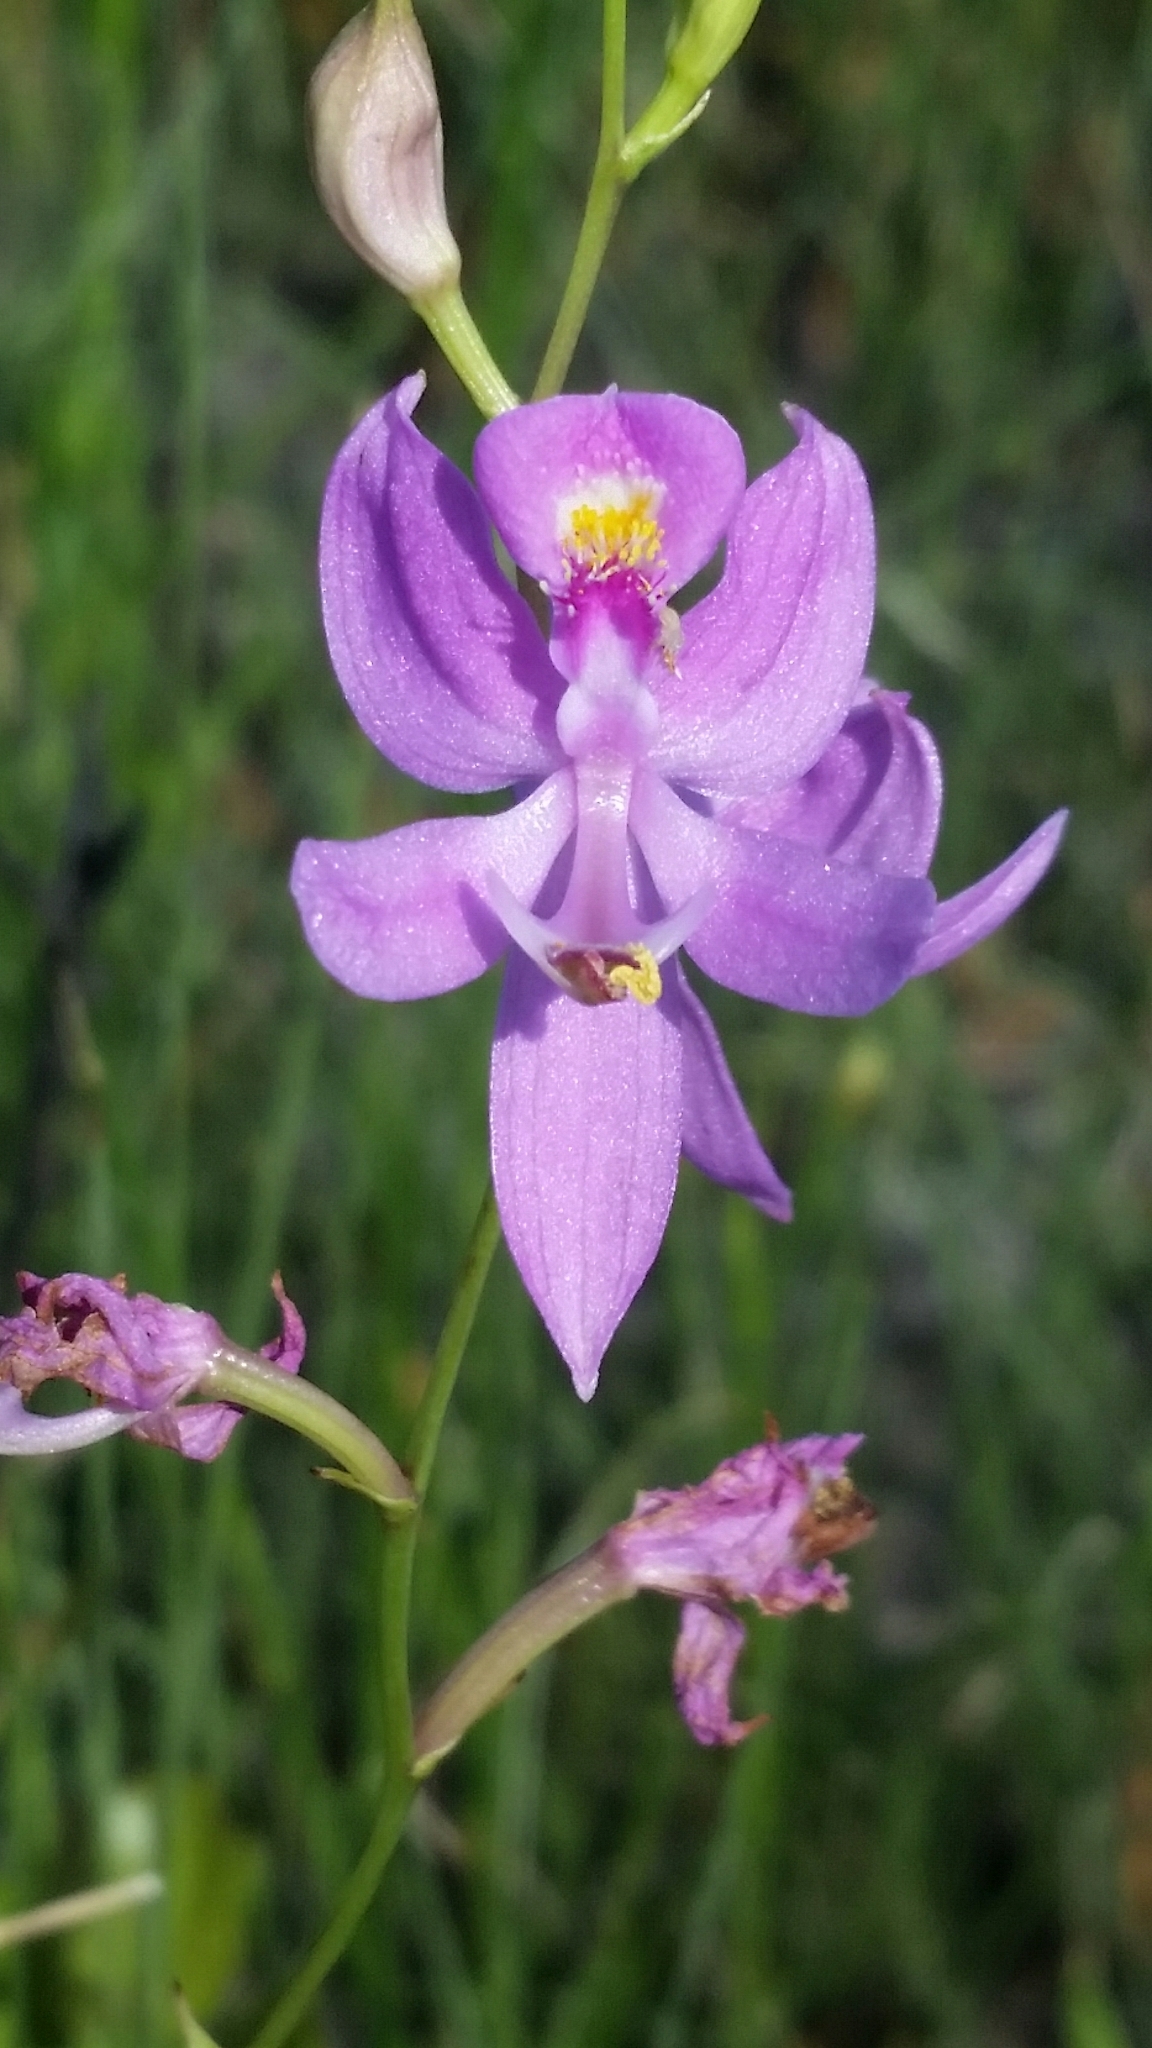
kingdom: Plantae
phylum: Tracheophyta
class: Liliopsida
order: Asparagales
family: Orchidaceae
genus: Calopogon
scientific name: Calopogon pallidus
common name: Pale grasspink
